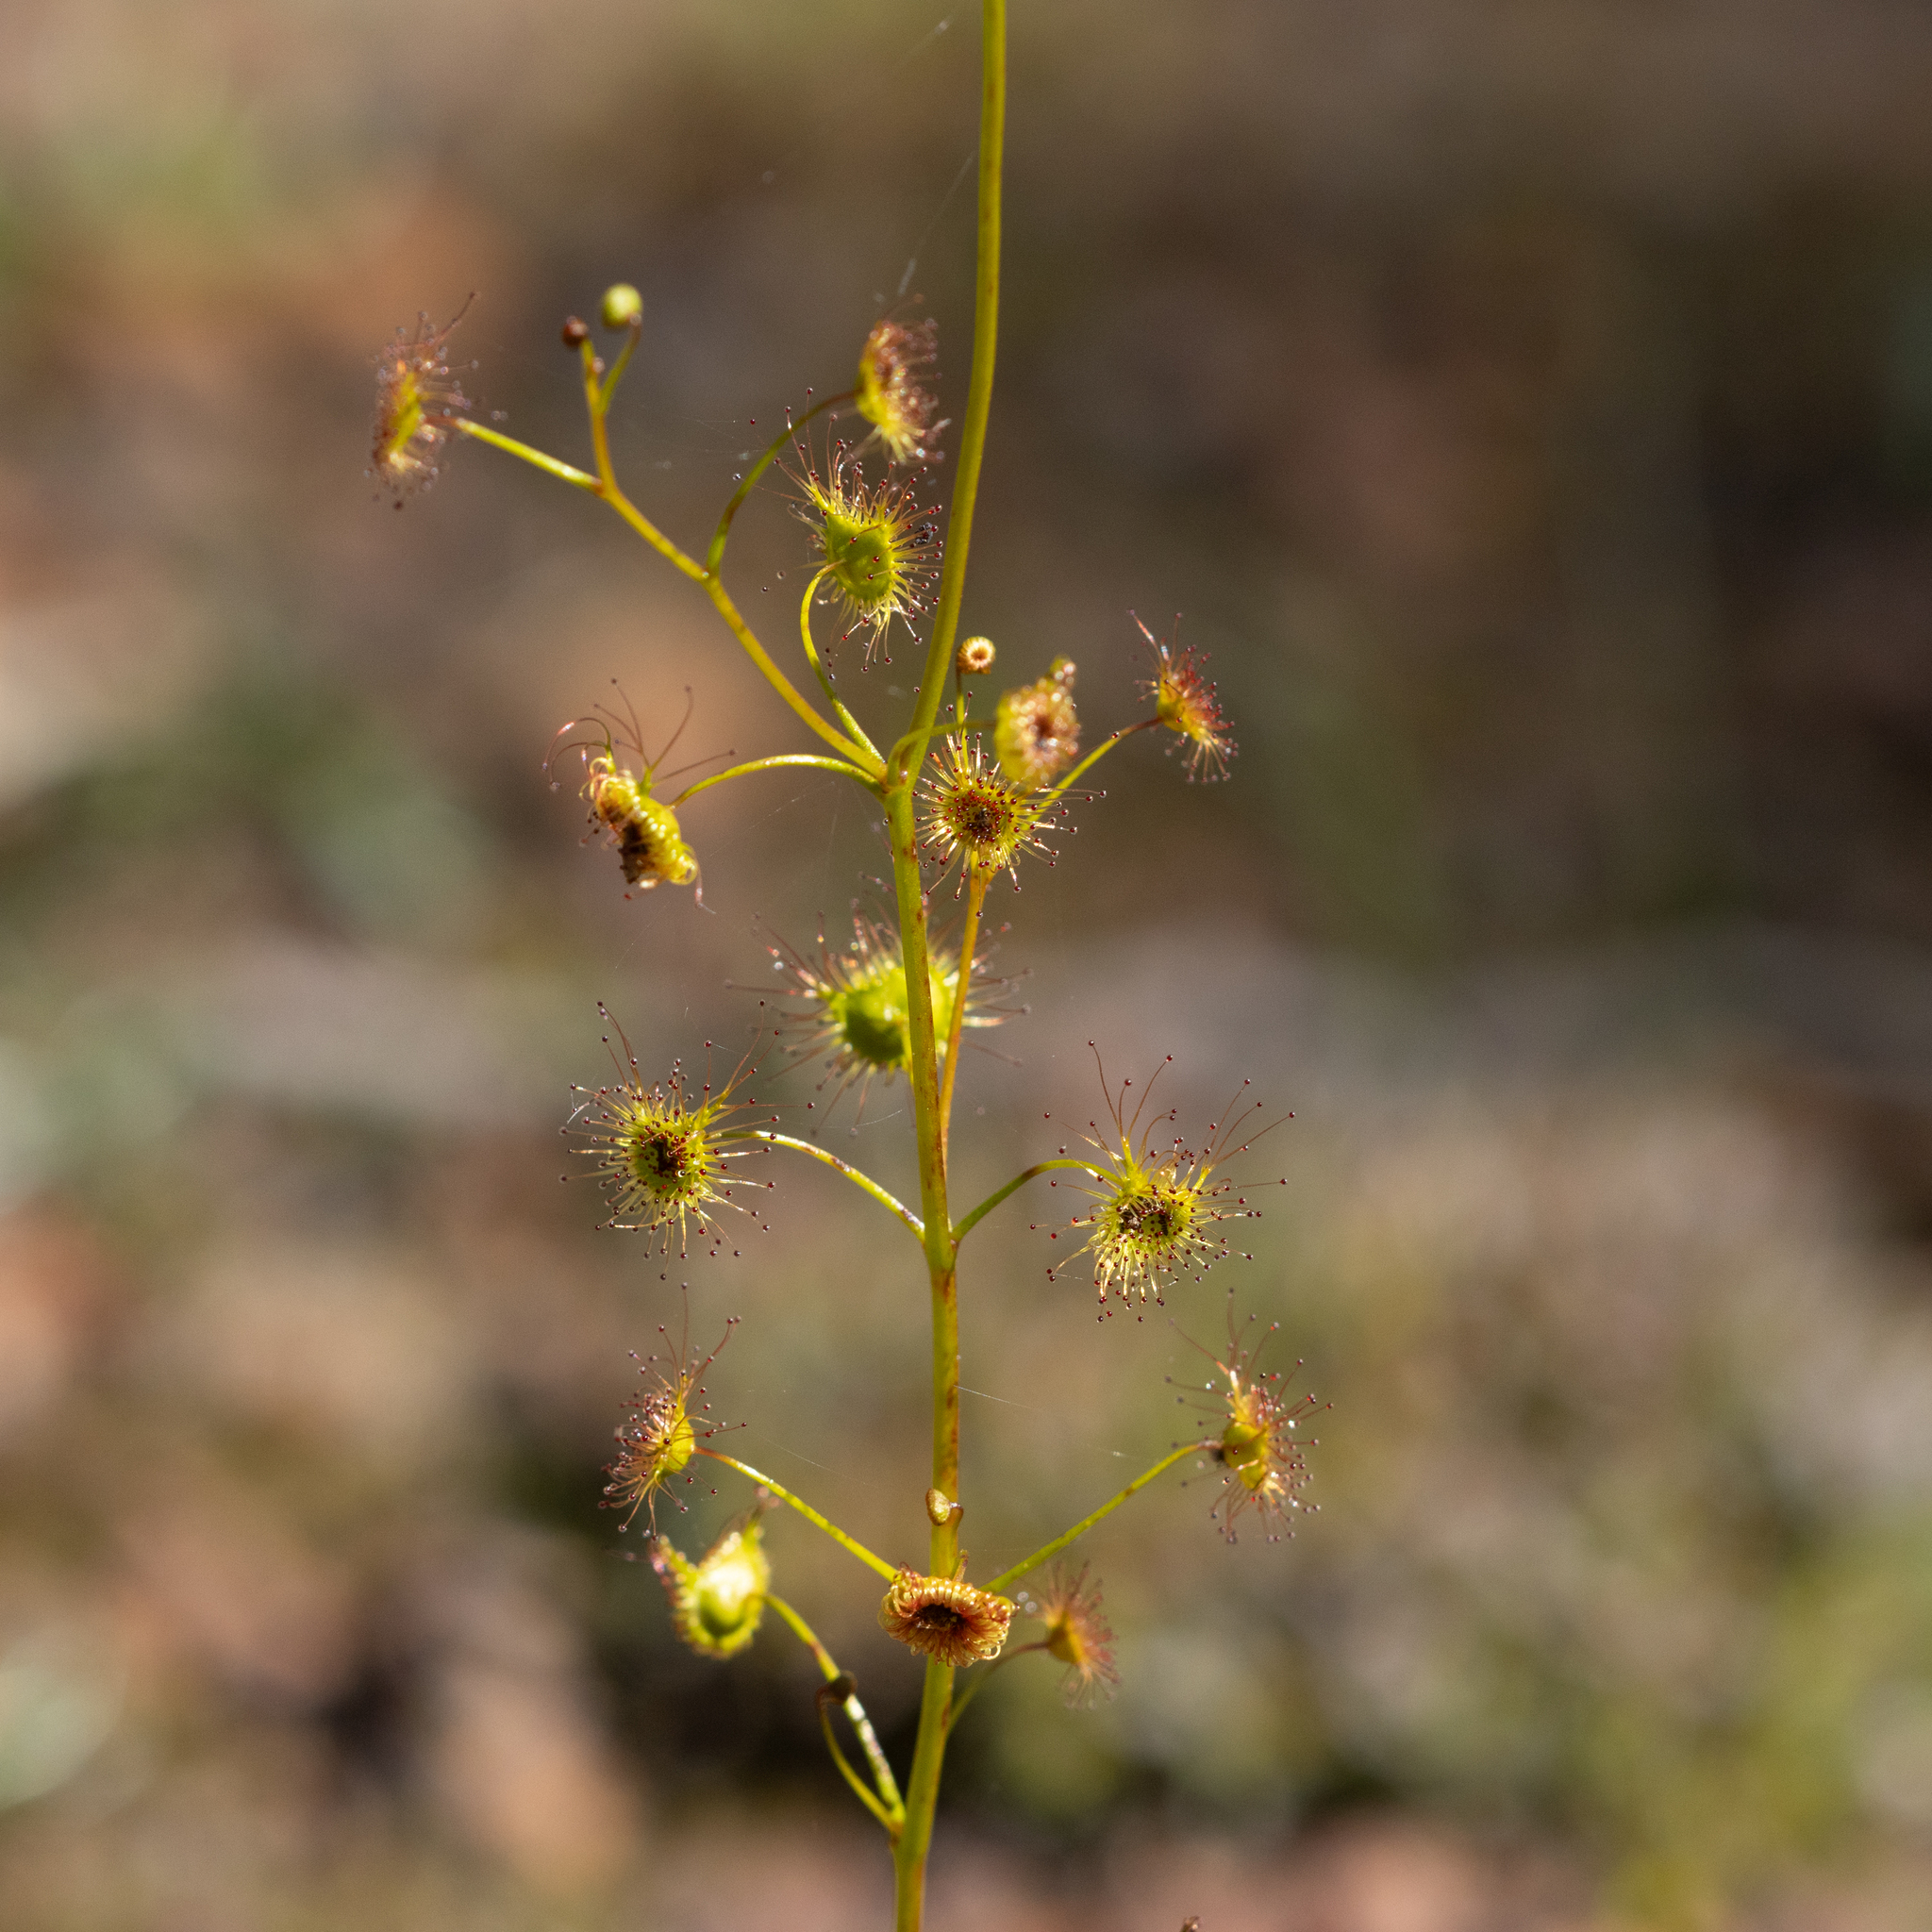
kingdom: Plantae
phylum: Tracheophyta
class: Magnoliopsida
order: Caryophyllales
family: Droseraceae
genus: Drosera
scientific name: Drosera peltata
